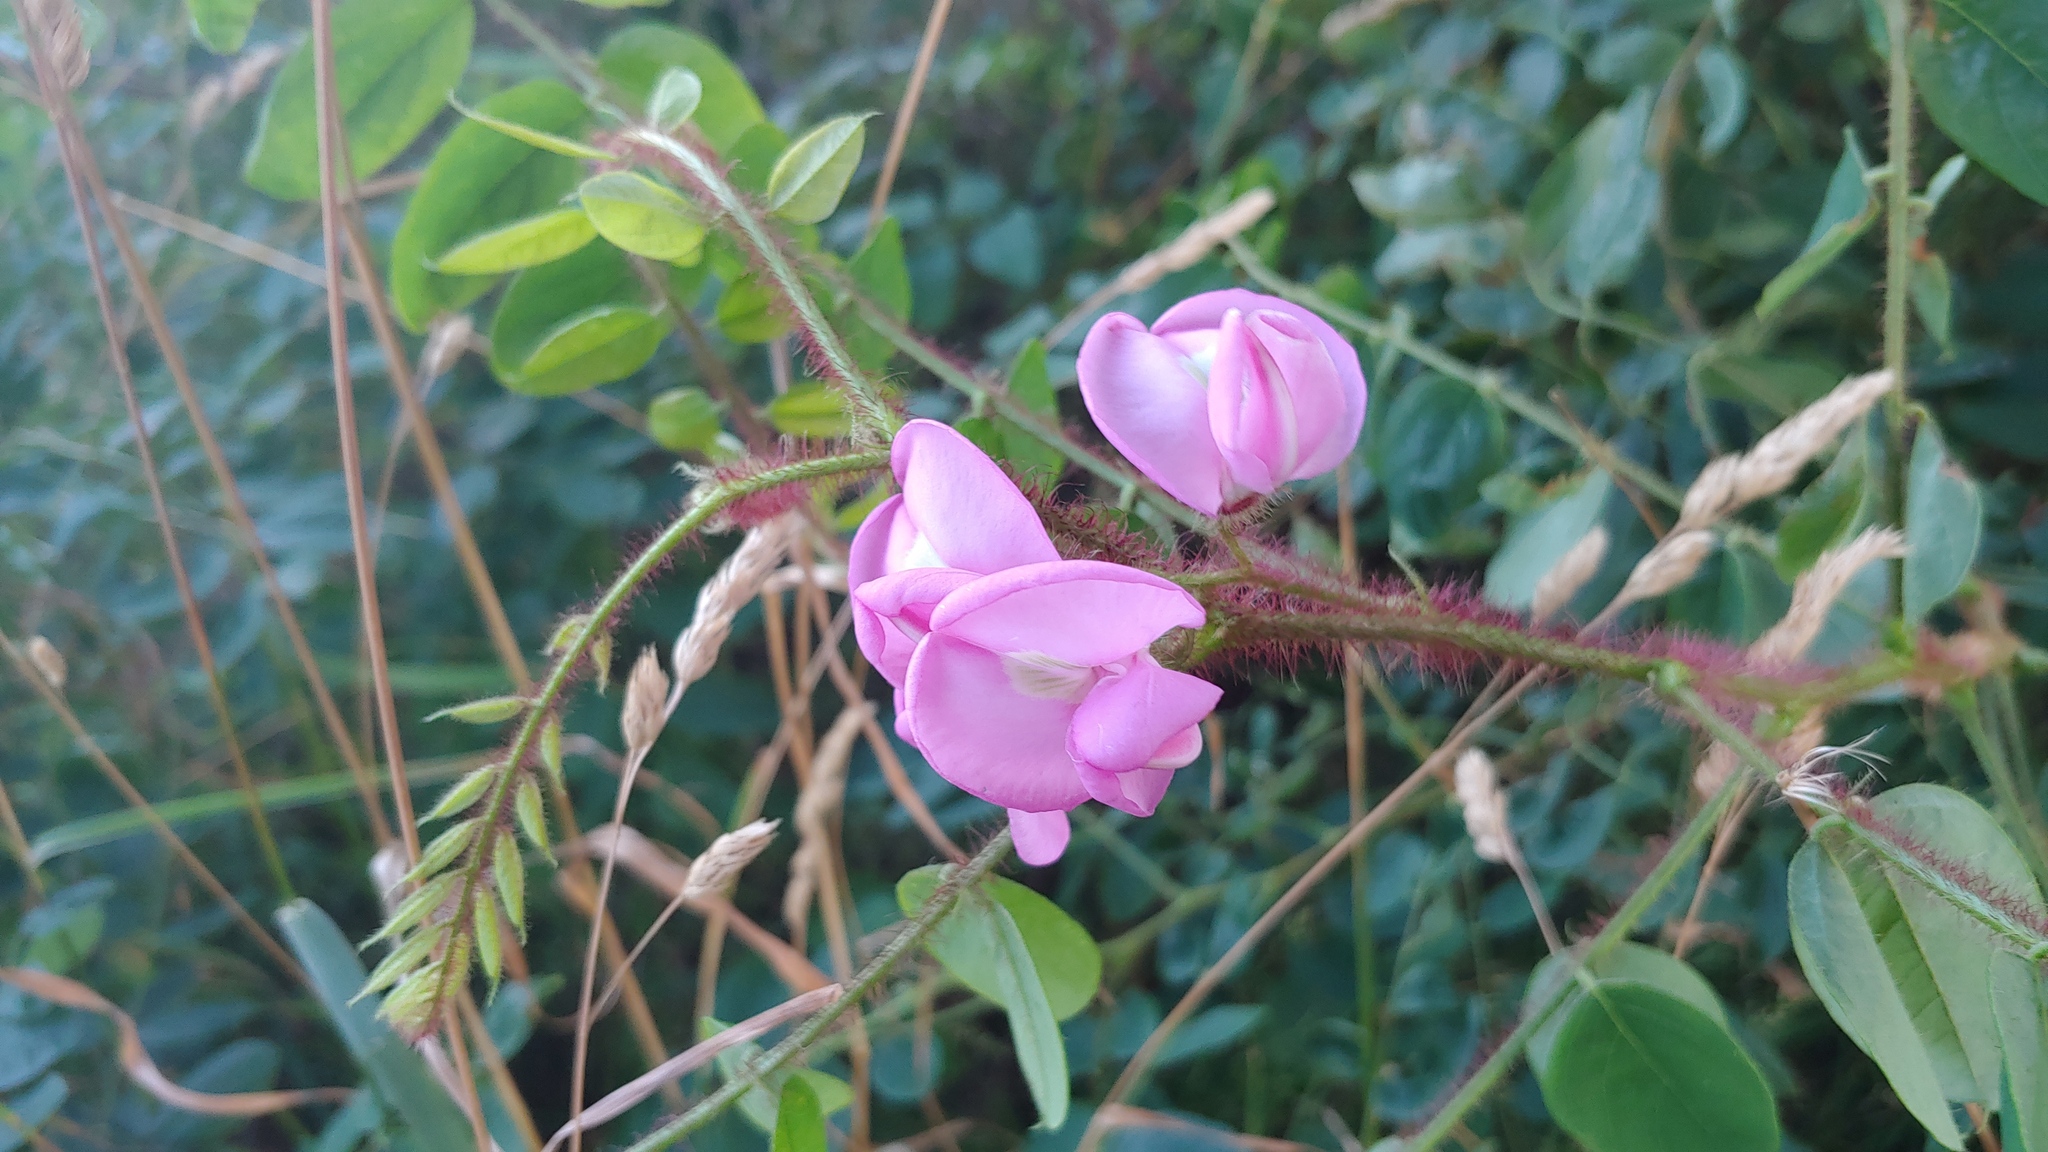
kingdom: Plantae
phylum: Tracheophyta
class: Magnoliopsida
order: Fabales
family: Fabaceae
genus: Robinia
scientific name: Robinia hispida
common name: Bristly locust
